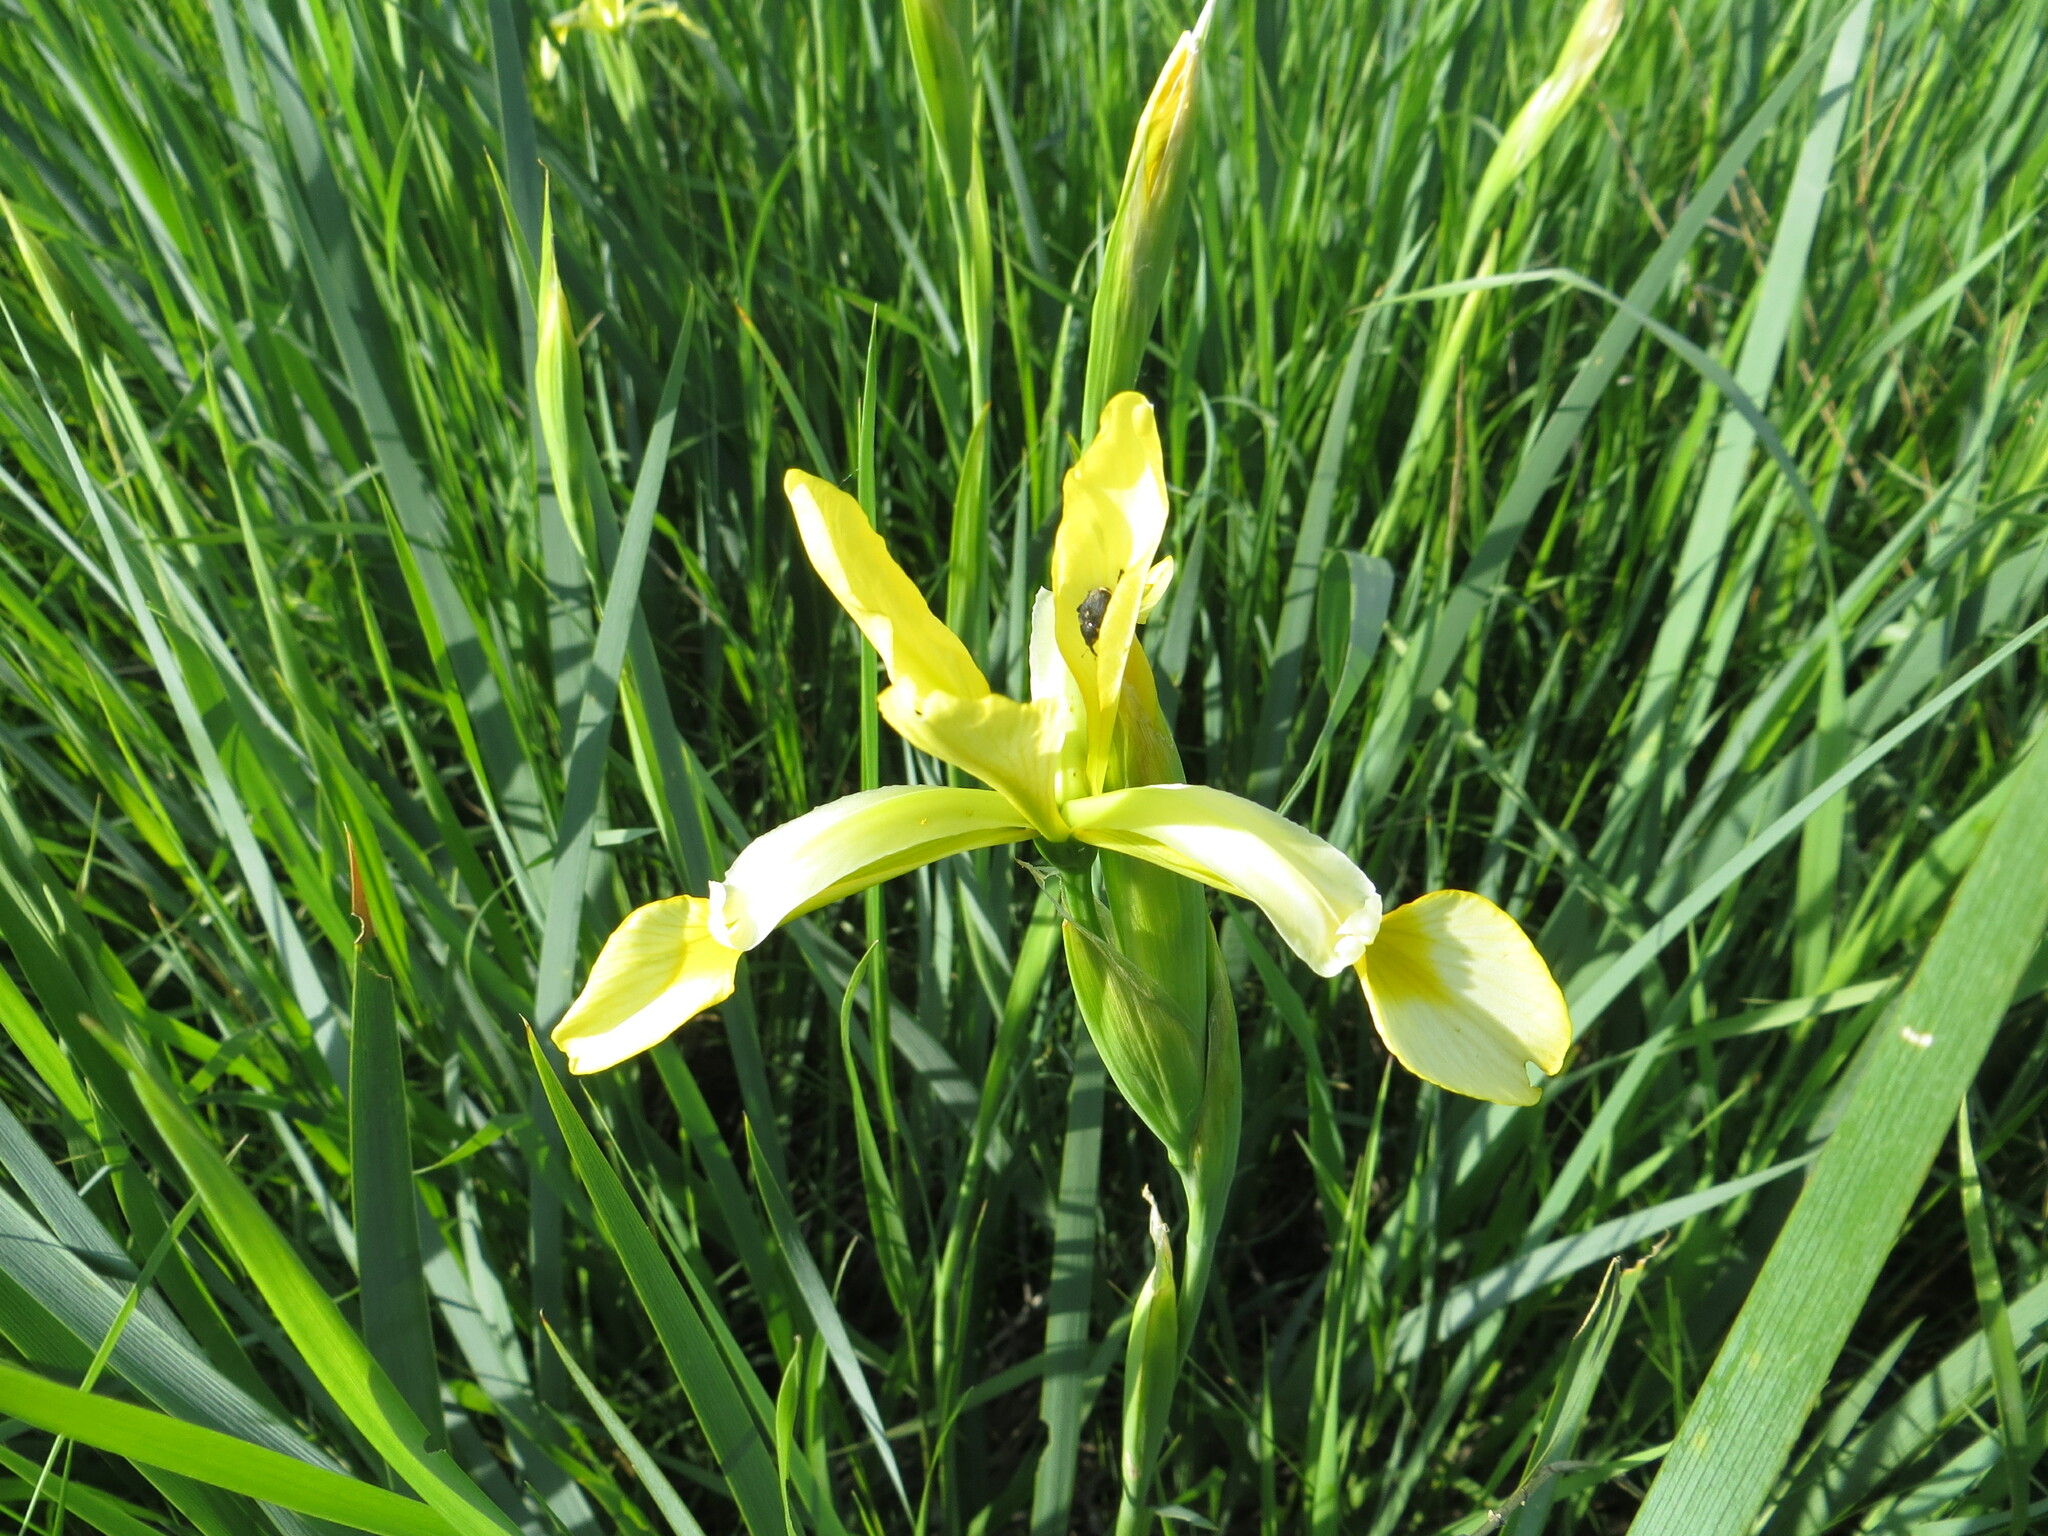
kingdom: Plantae
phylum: Tracheophyta
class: Liliopsida
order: Asparagales
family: Iridaceae
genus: Iris
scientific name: Iris halophila
